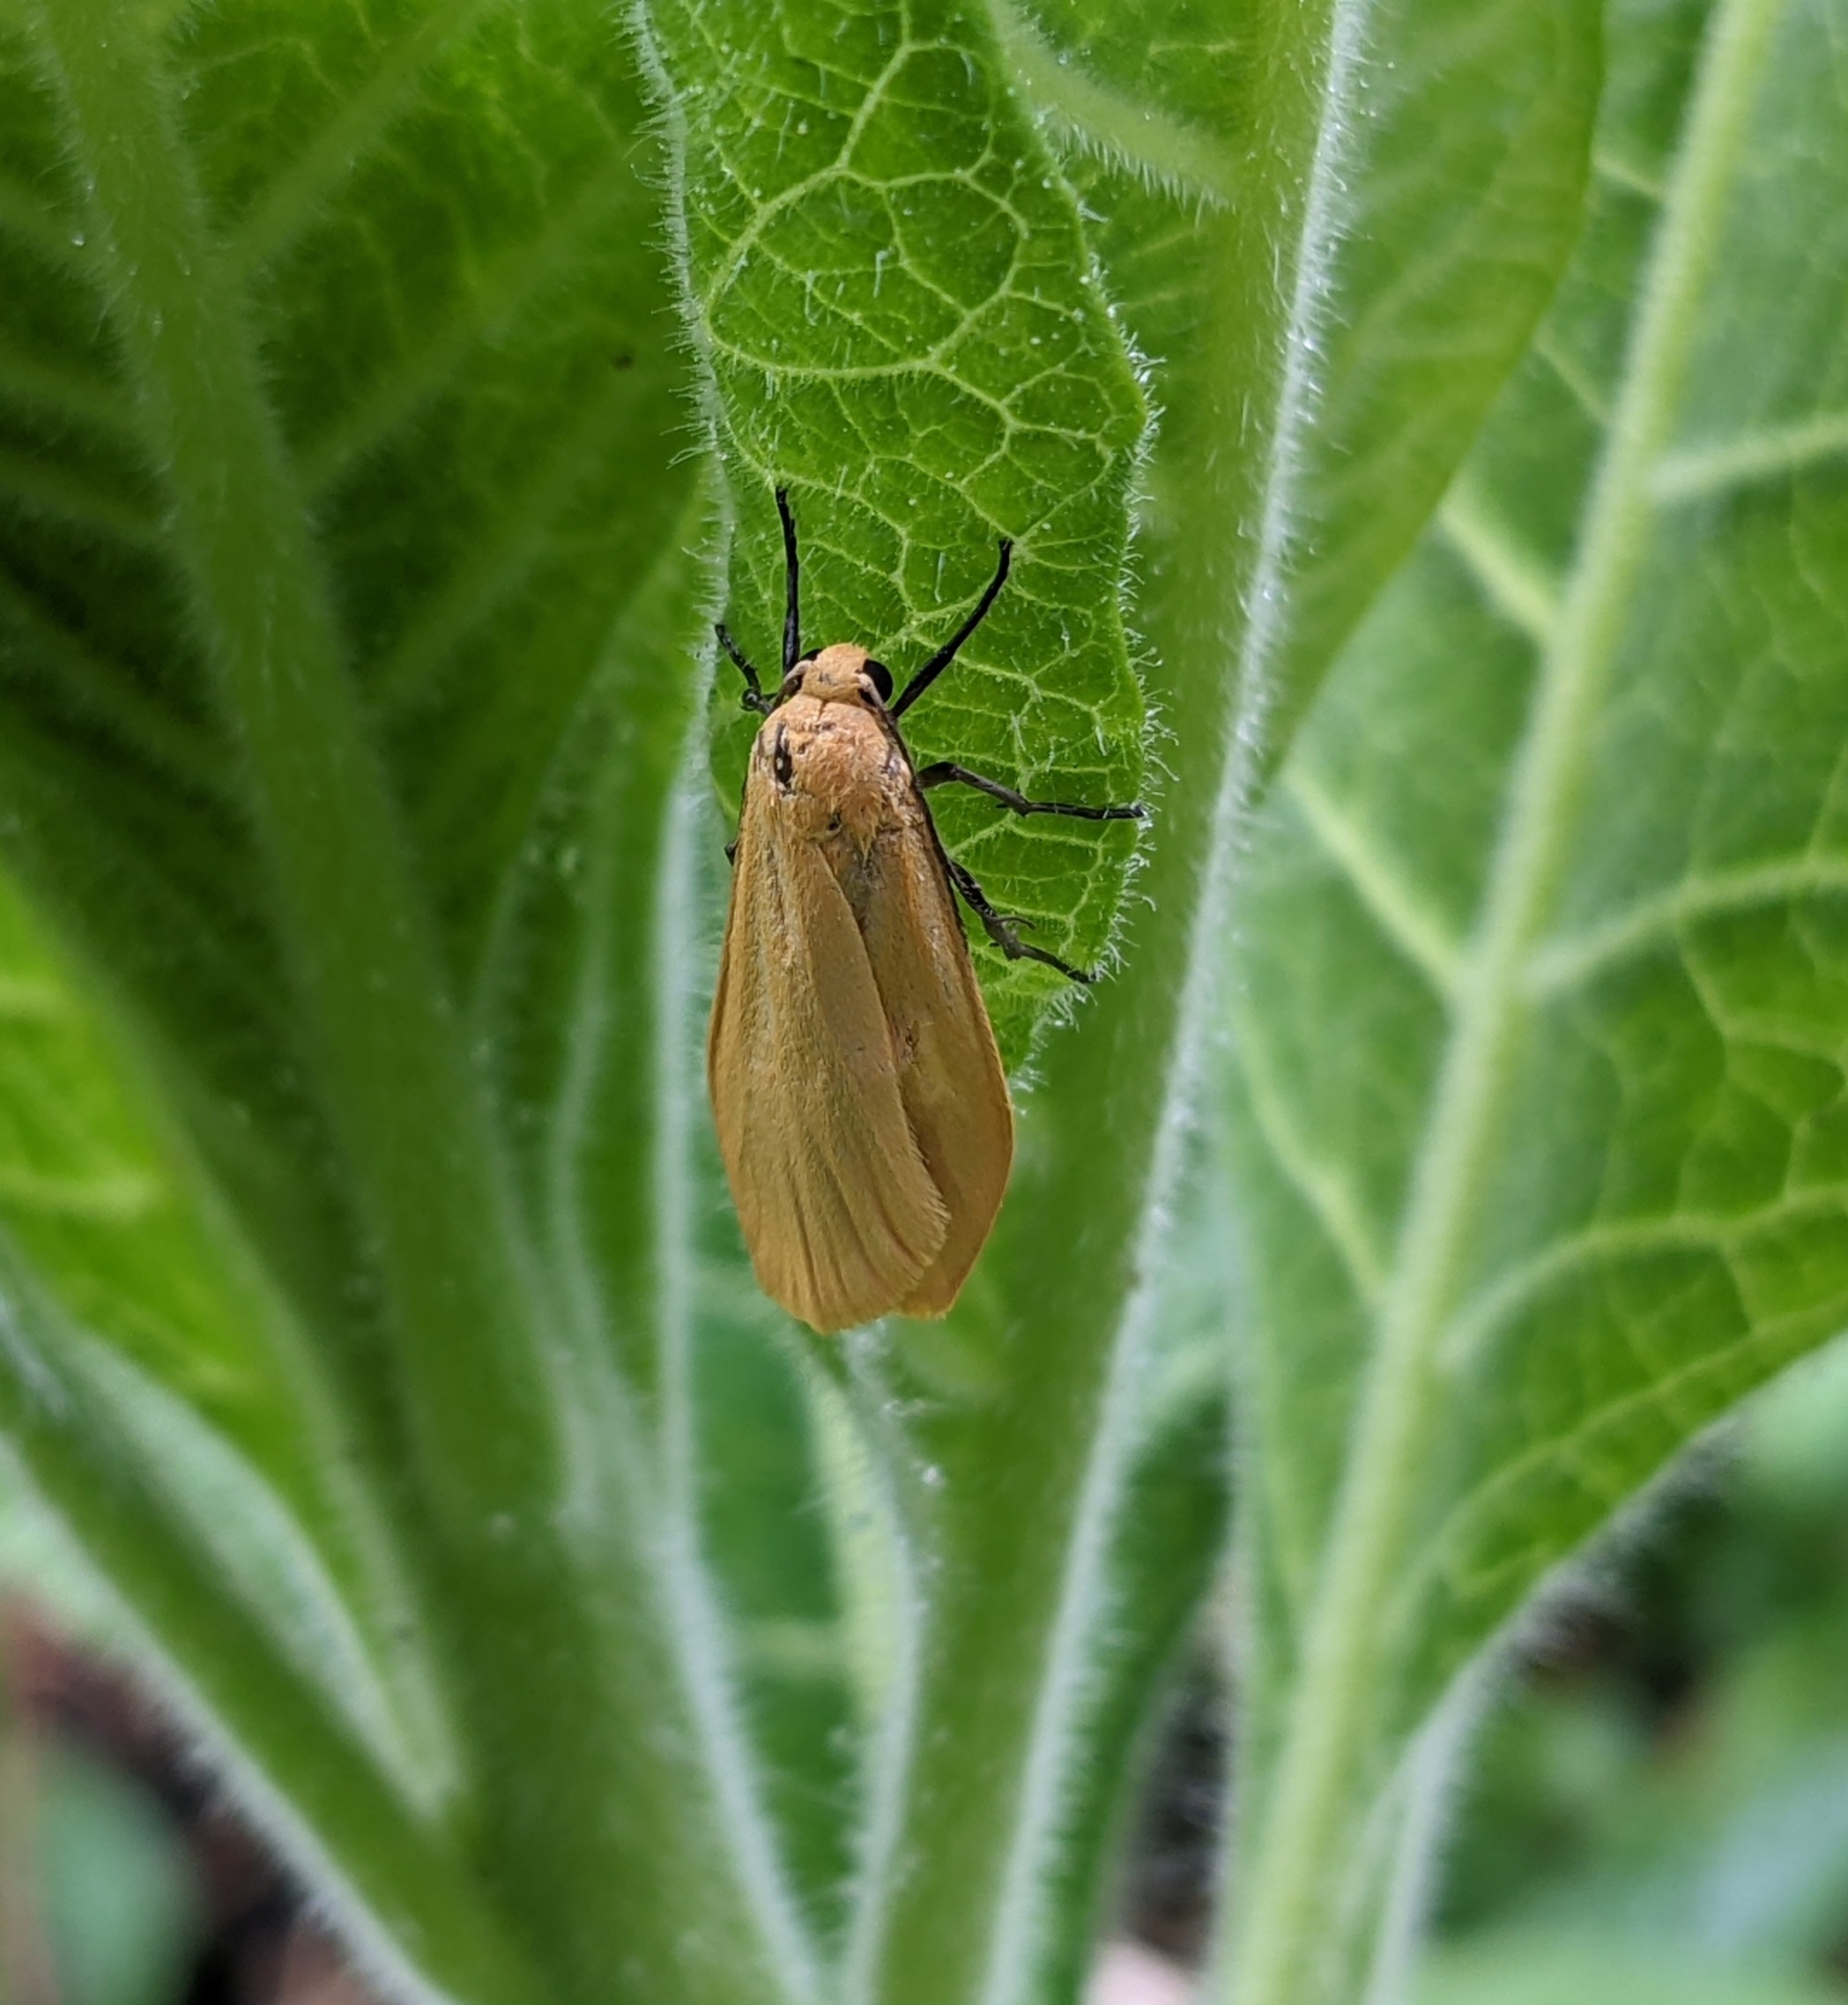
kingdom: Animalia
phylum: Arthropoda
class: Insecta
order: Lepidoptera
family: Erebidae
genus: Wittia
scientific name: Wittia sororcula
